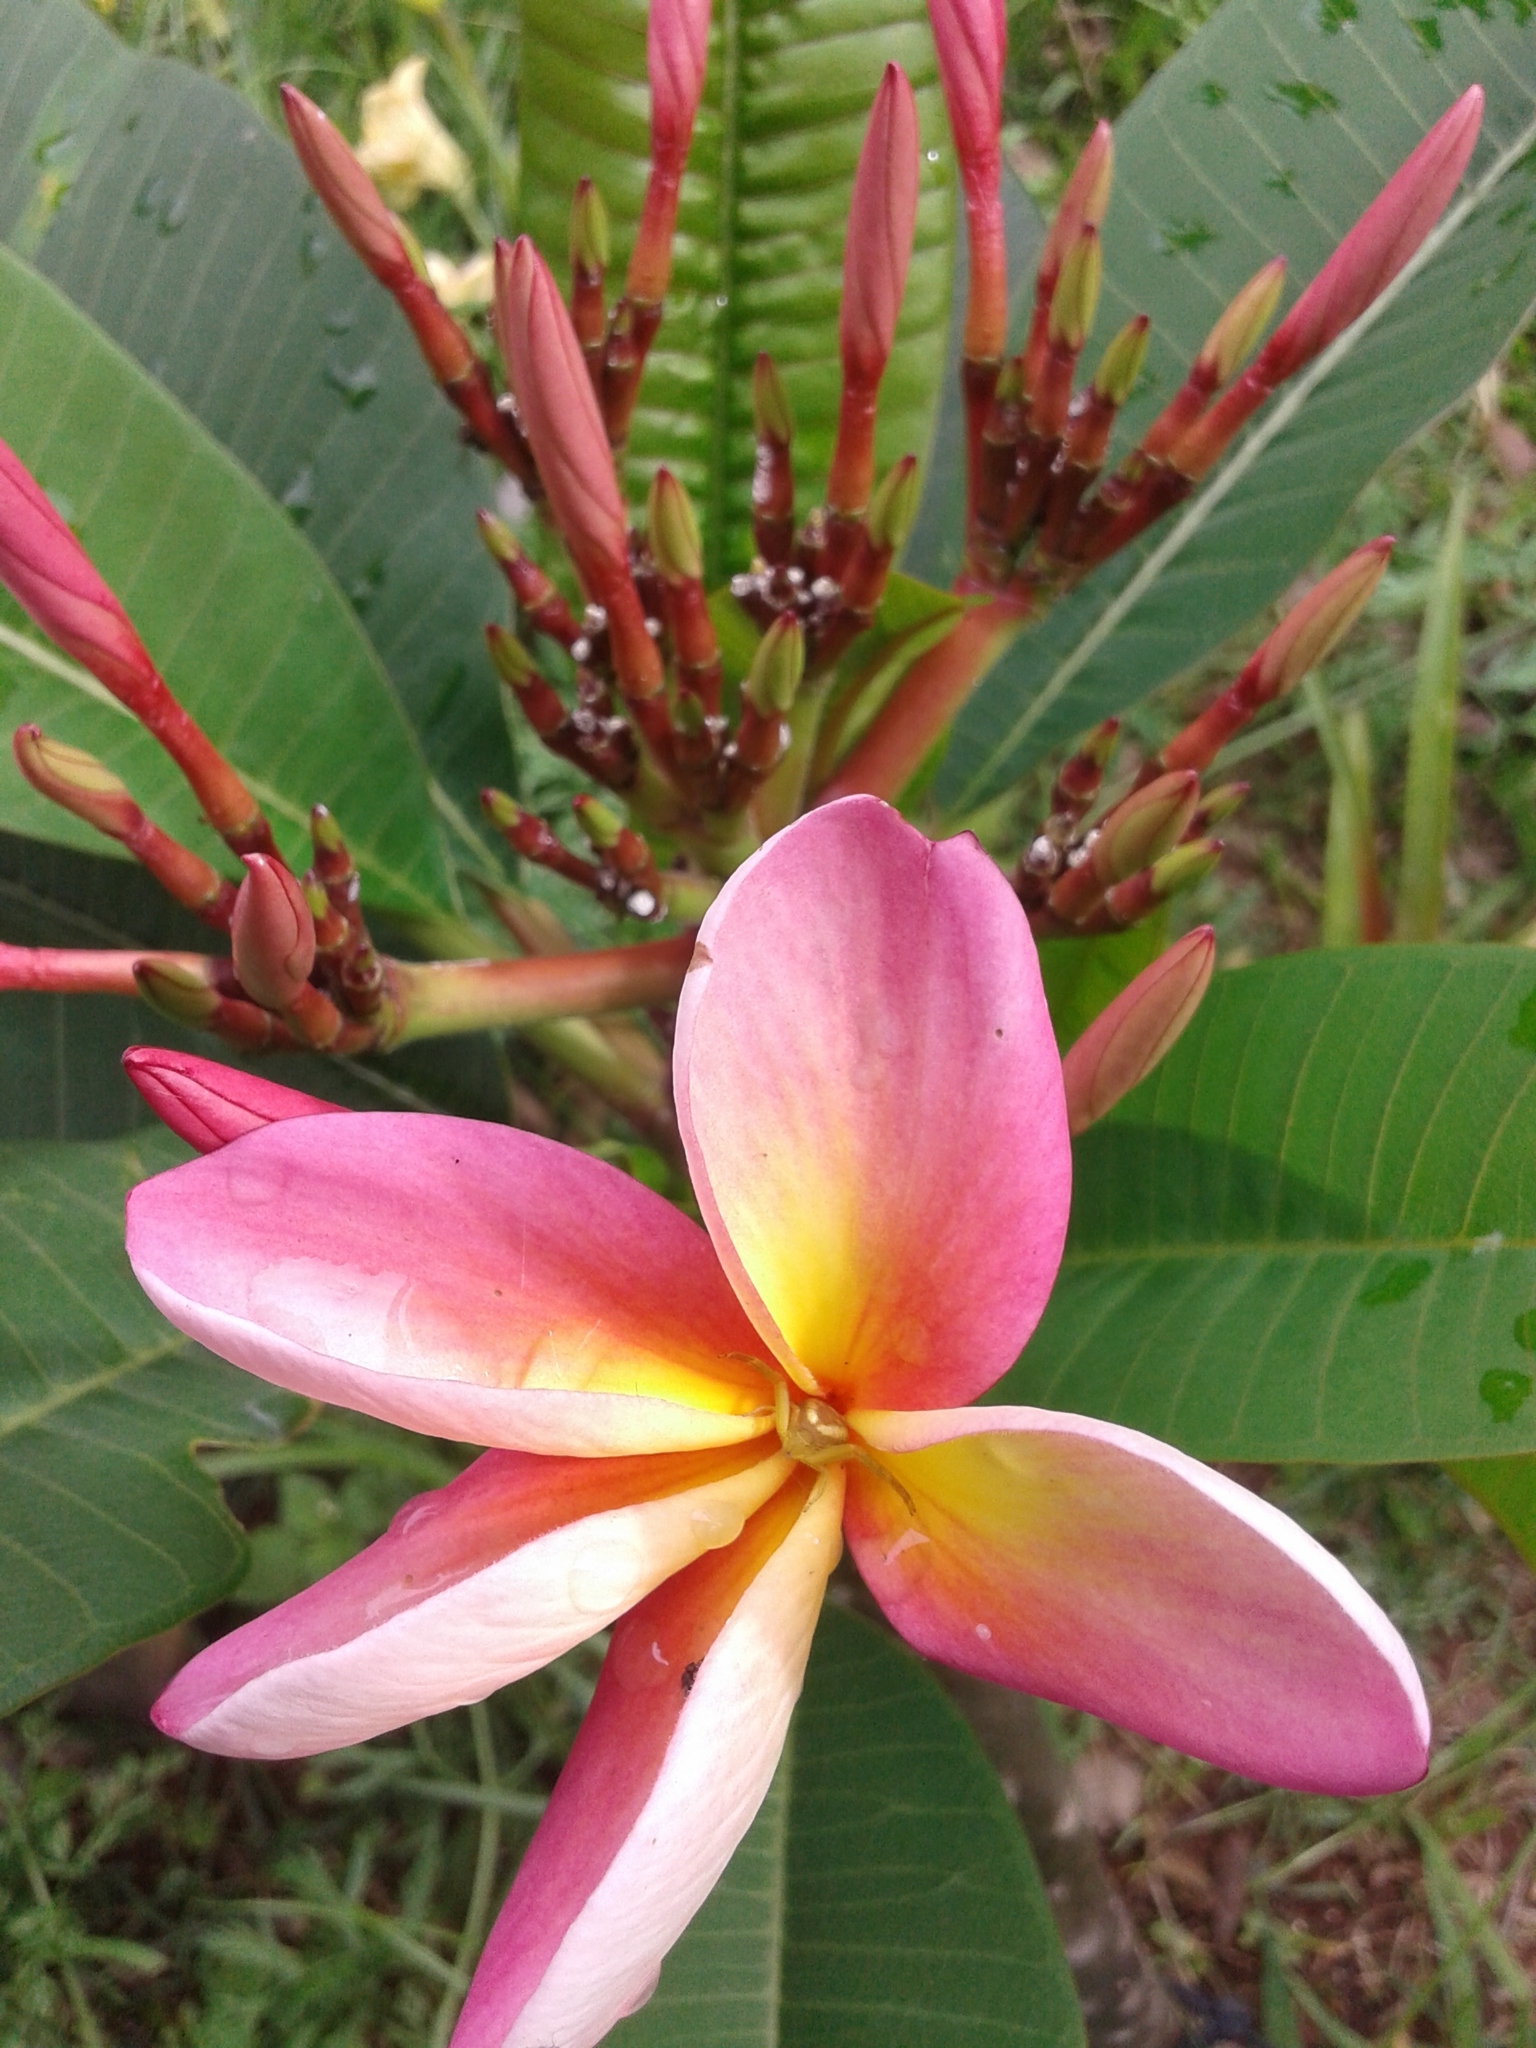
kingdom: Plantae
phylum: Tracheophyta
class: Magnoliopsida
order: Gentianales
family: Apocynaceae
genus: Plumeria
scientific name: Plumeria rubra
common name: Pagoda-tree
